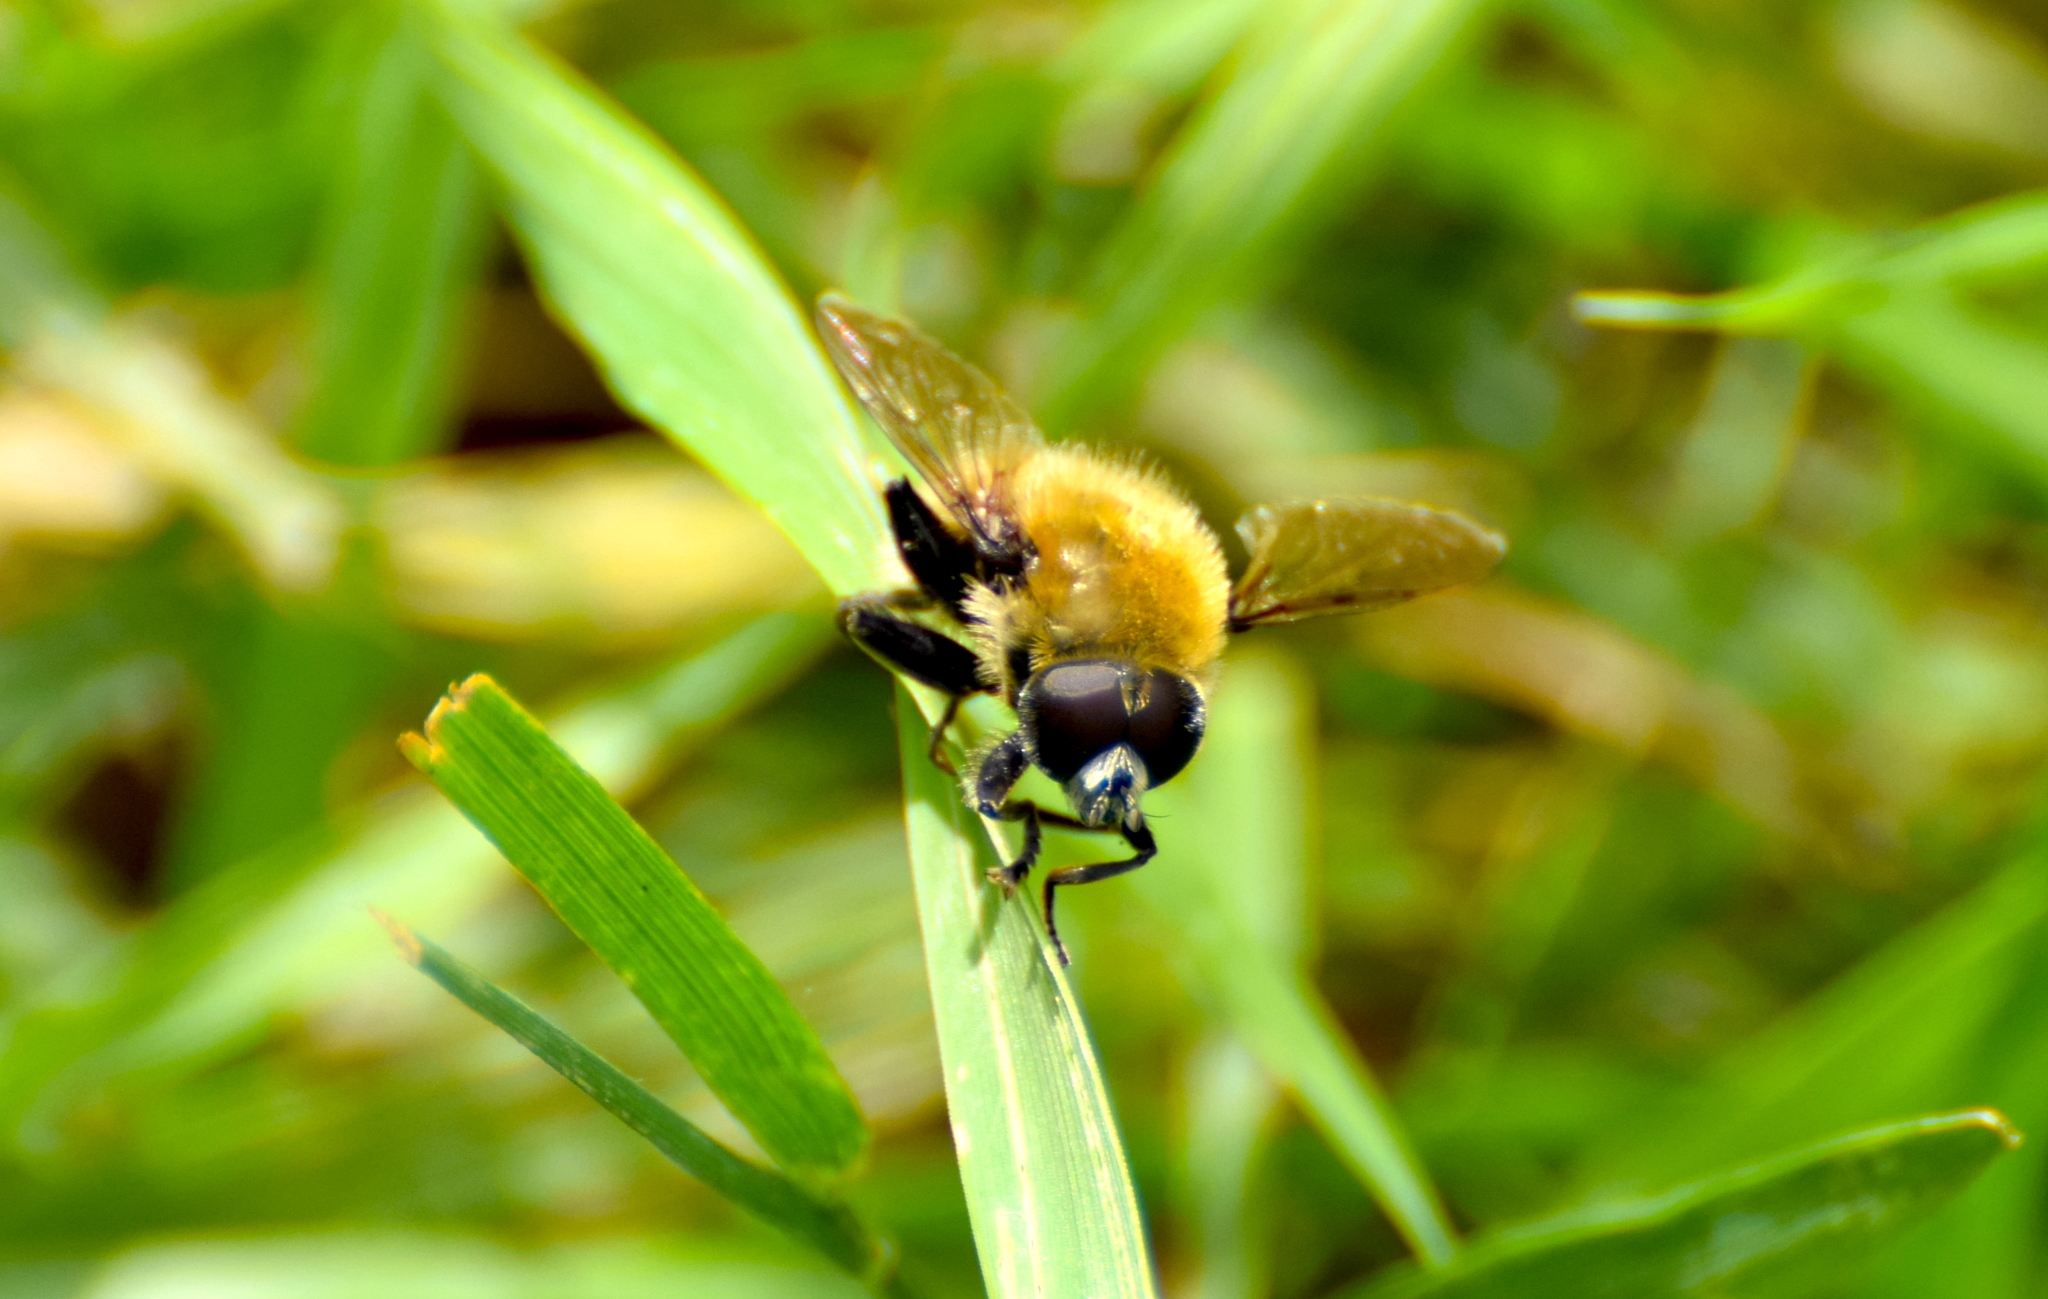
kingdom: Animalia
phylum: Arthropoda
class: Insecta
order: Diptera
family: Syrphidae
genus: Merodon
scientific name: Merodon equestris
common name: Greater bulb-fly
